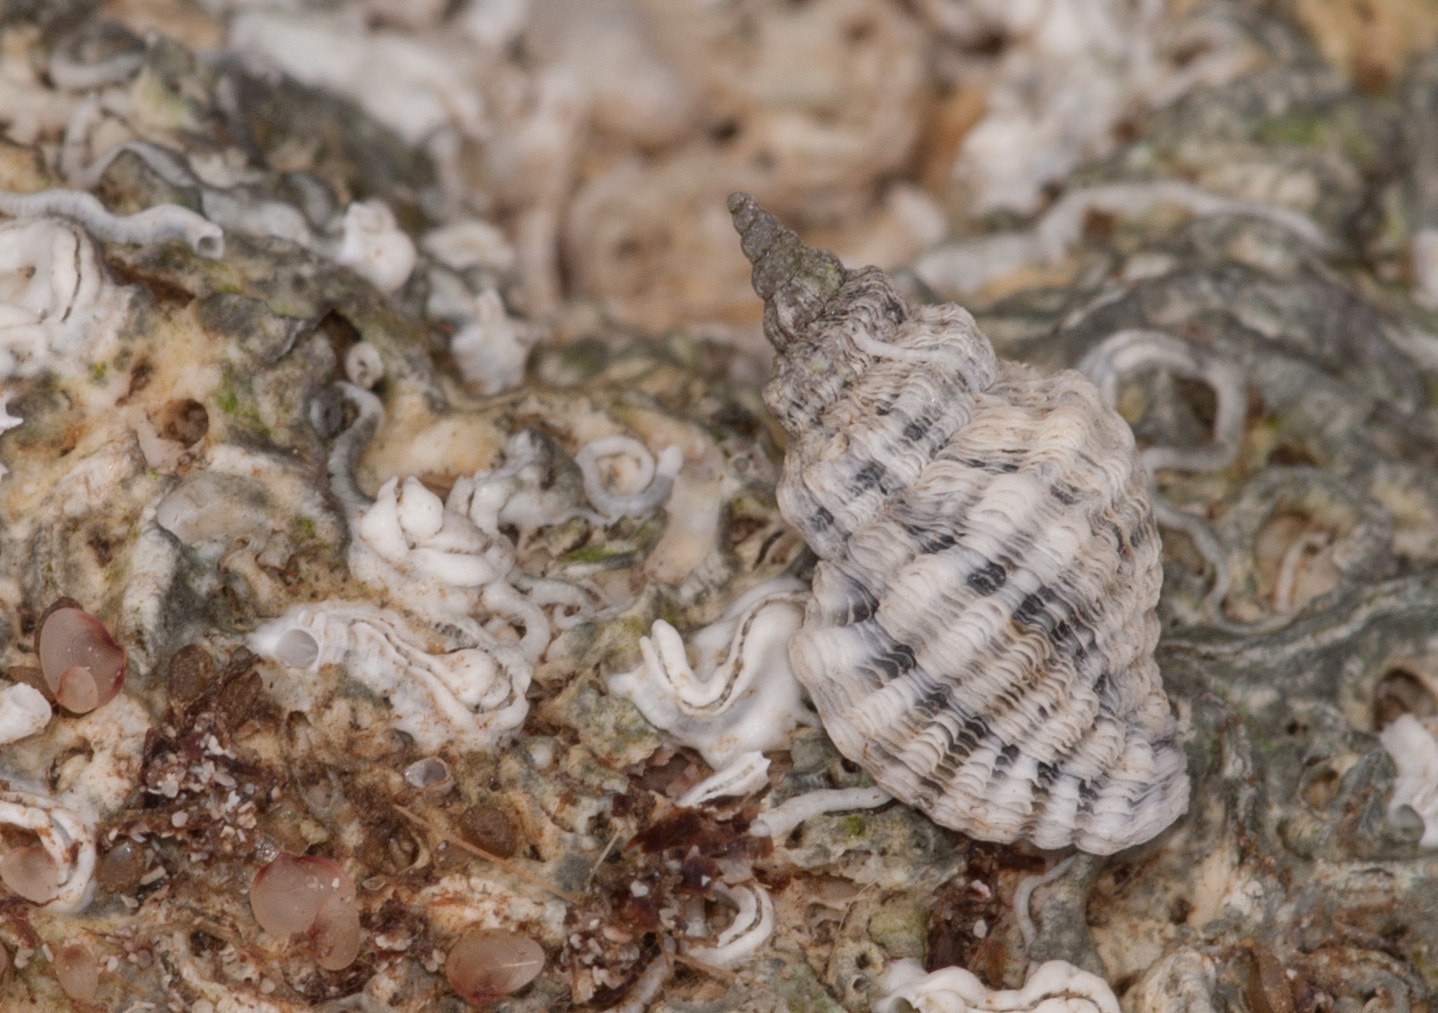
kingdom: Animalia
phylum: Mollusca
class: Gastropoda
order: Neogastropoda
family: Muricidae
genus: Bedeva
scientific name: Bedeva vinosa
